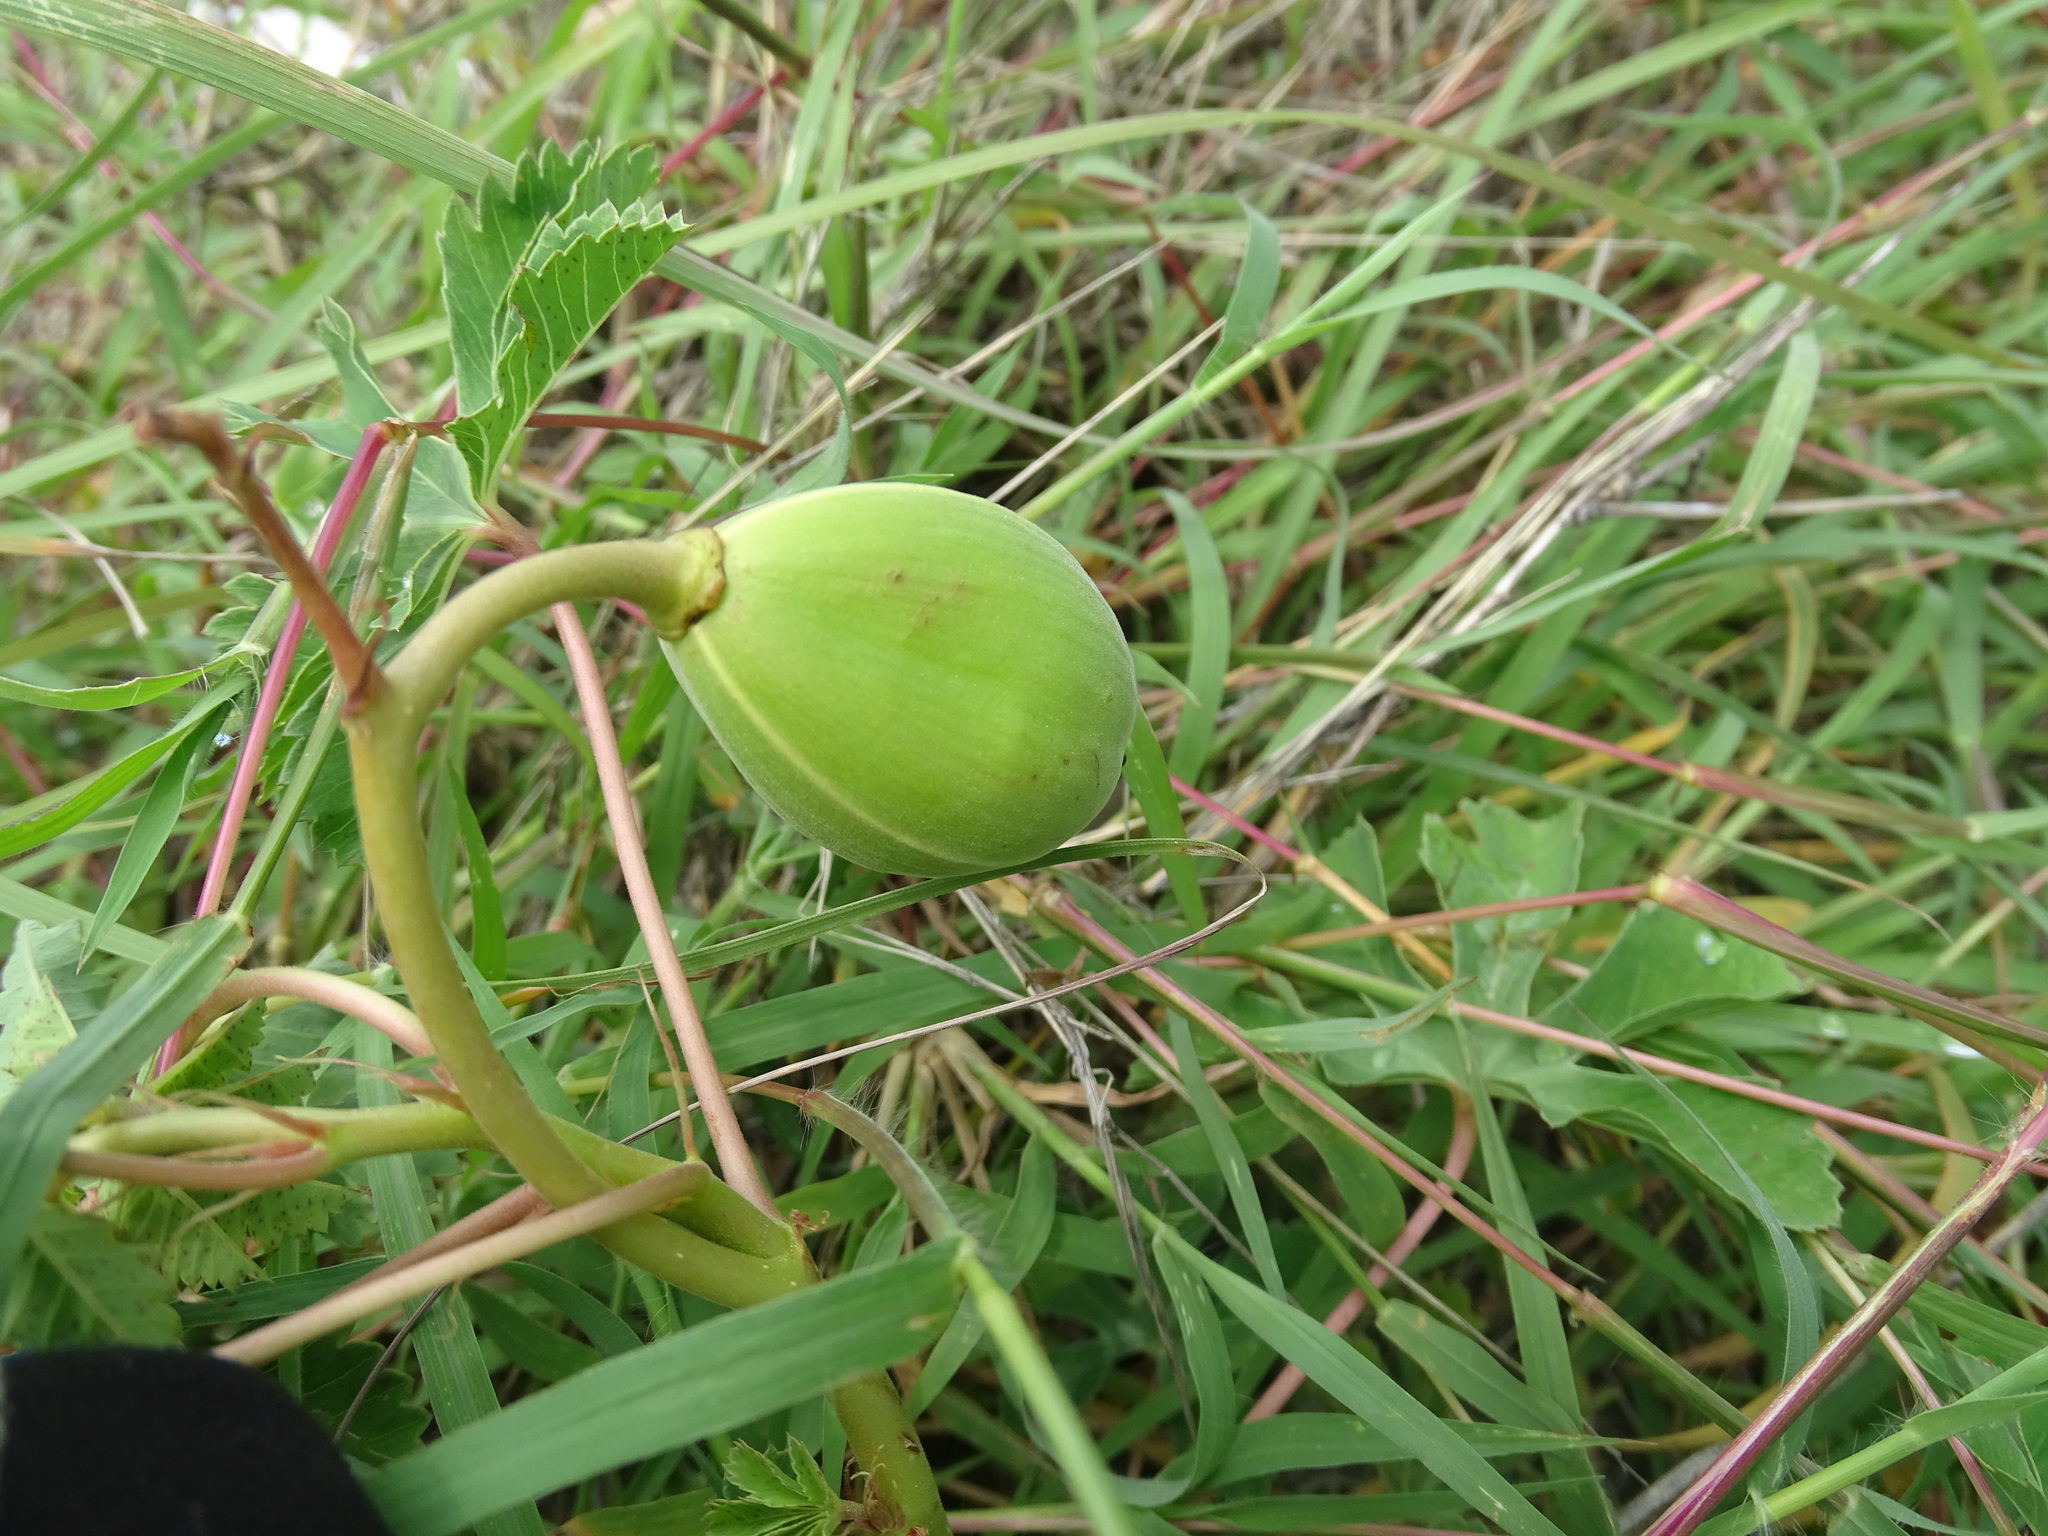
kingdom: Plantae
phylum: Tracheophyta
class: Magnoliopsida
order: Malvales
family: Cochlospermaceae
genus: Cochlospermum
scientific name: Cochlospermum wrightii
